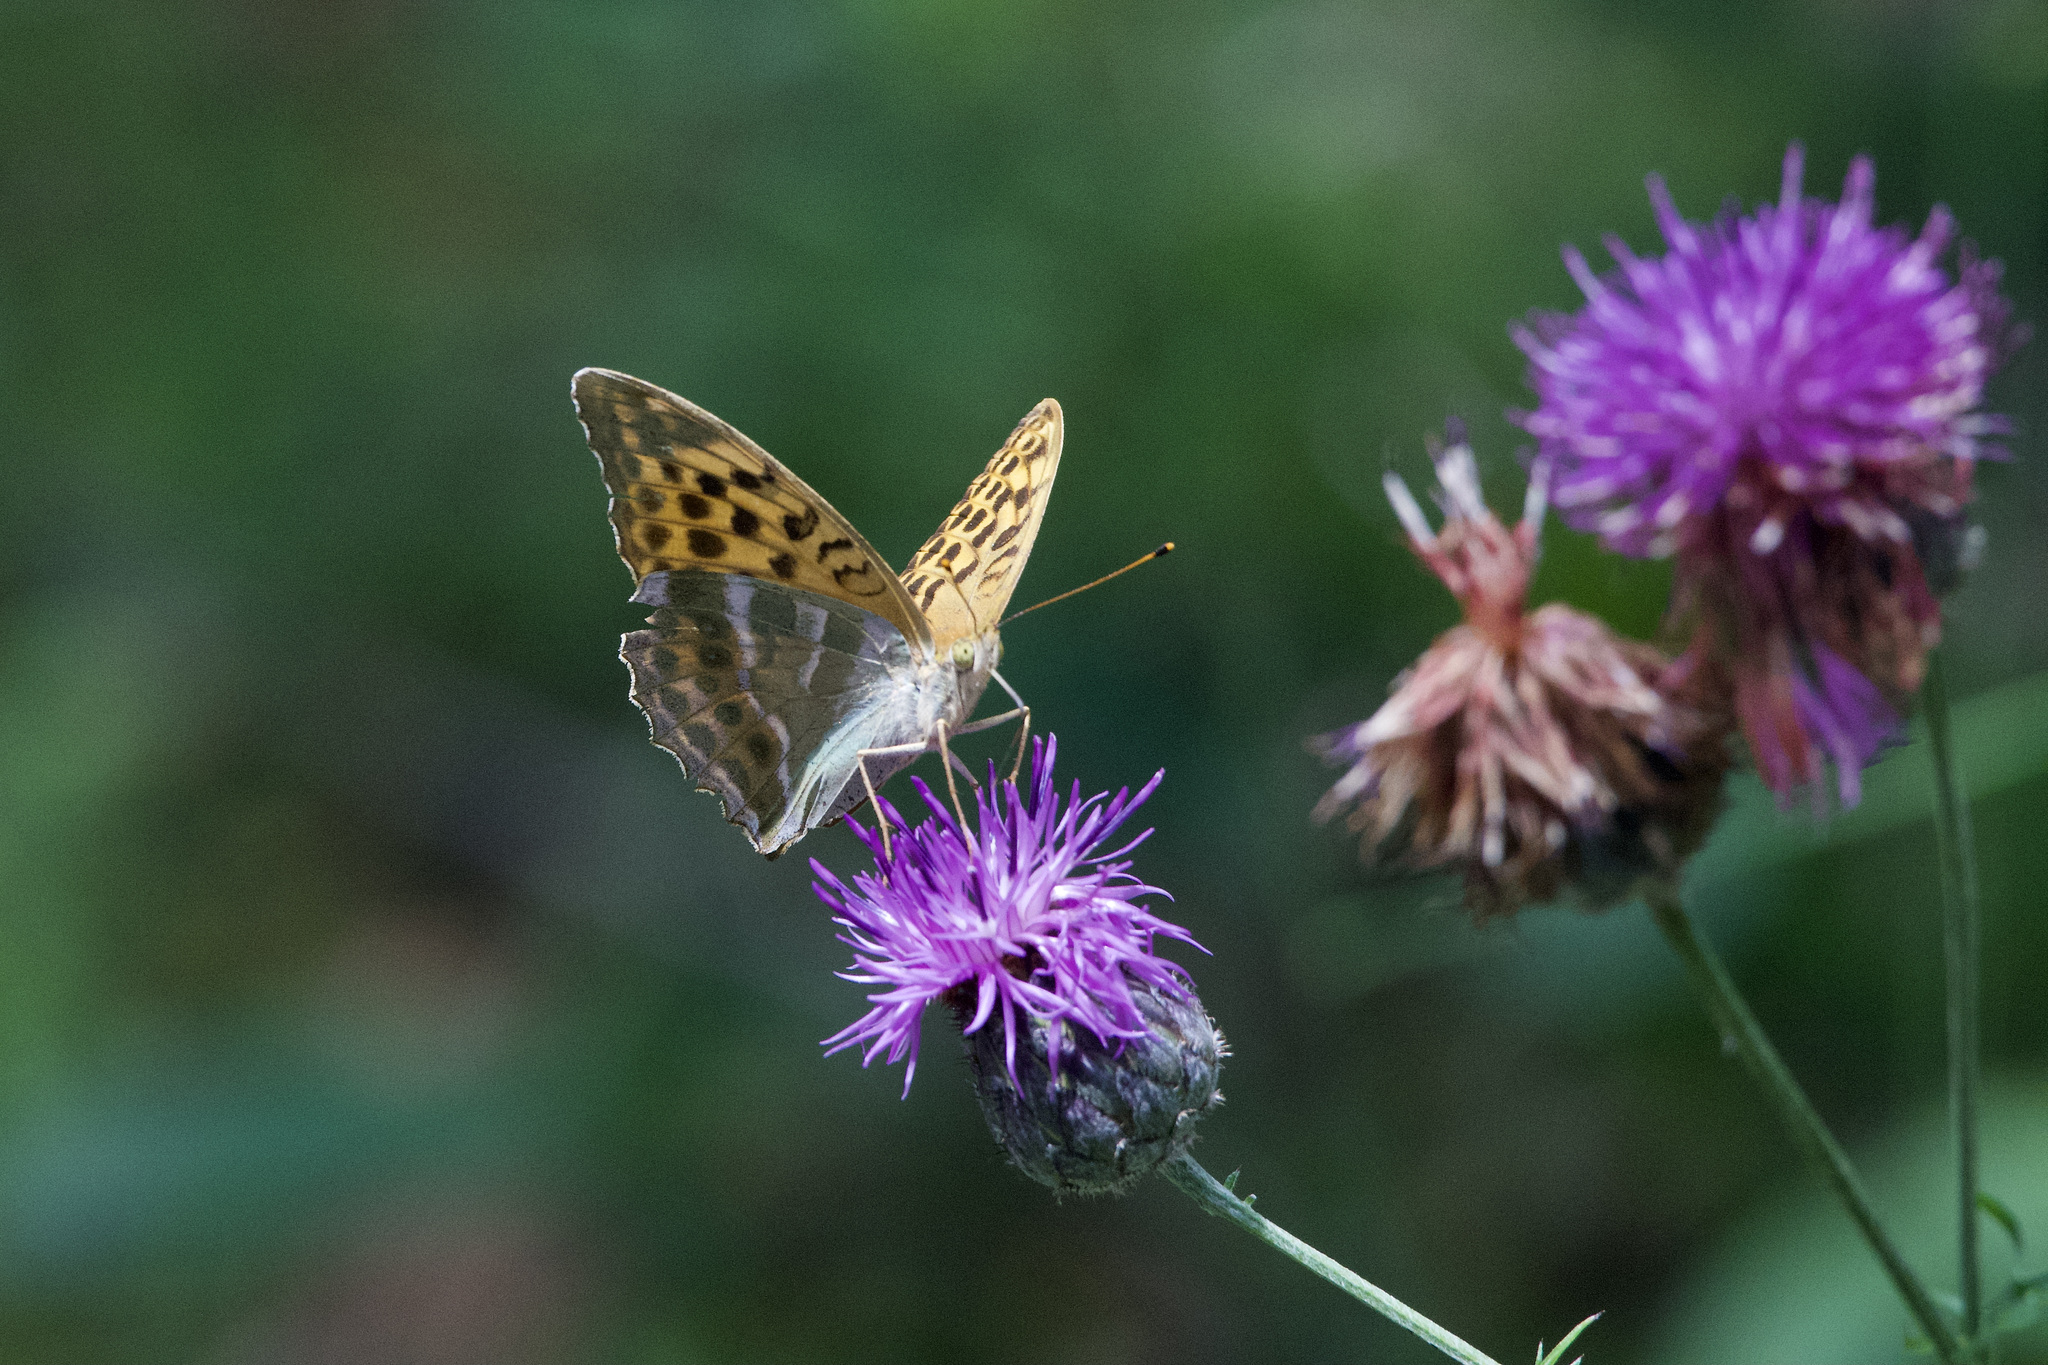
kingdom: Animalia
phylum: Arthropoda
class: Insecta
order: Lepidoptera
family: Nymphalidae
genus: Argynnis
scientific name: Argynnis paphia
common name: Silver-washed fritillary
